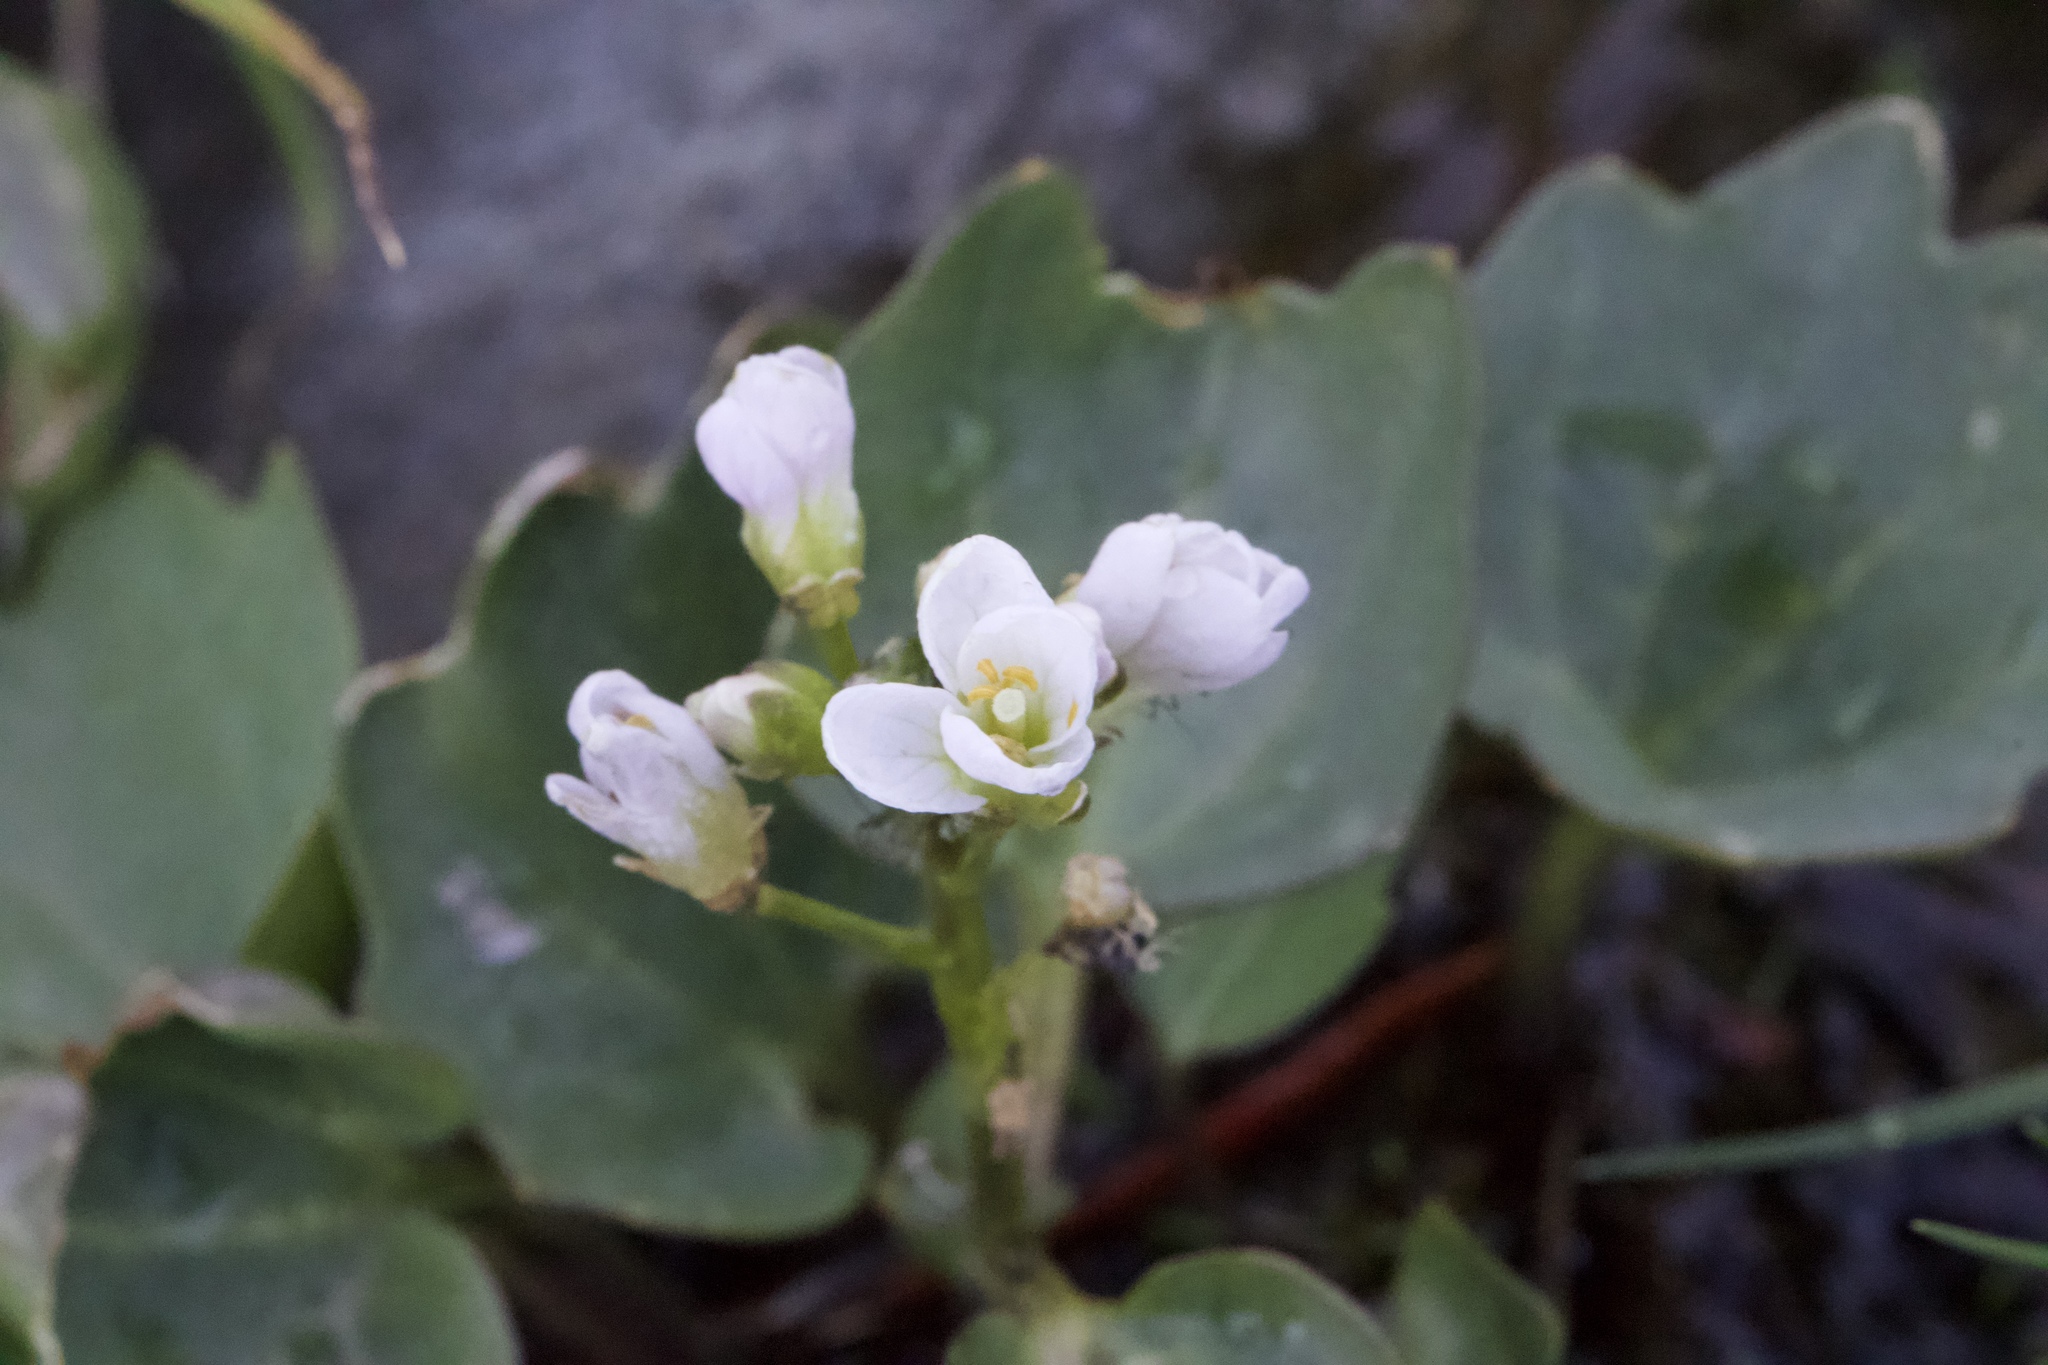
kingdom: Plantae
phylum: Tracheophyta
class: Magnoliopsida
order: Brassicales
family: Brassicaceae
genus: Cardamine
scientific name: Cardamine pachystigma
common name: Rock toothwort
